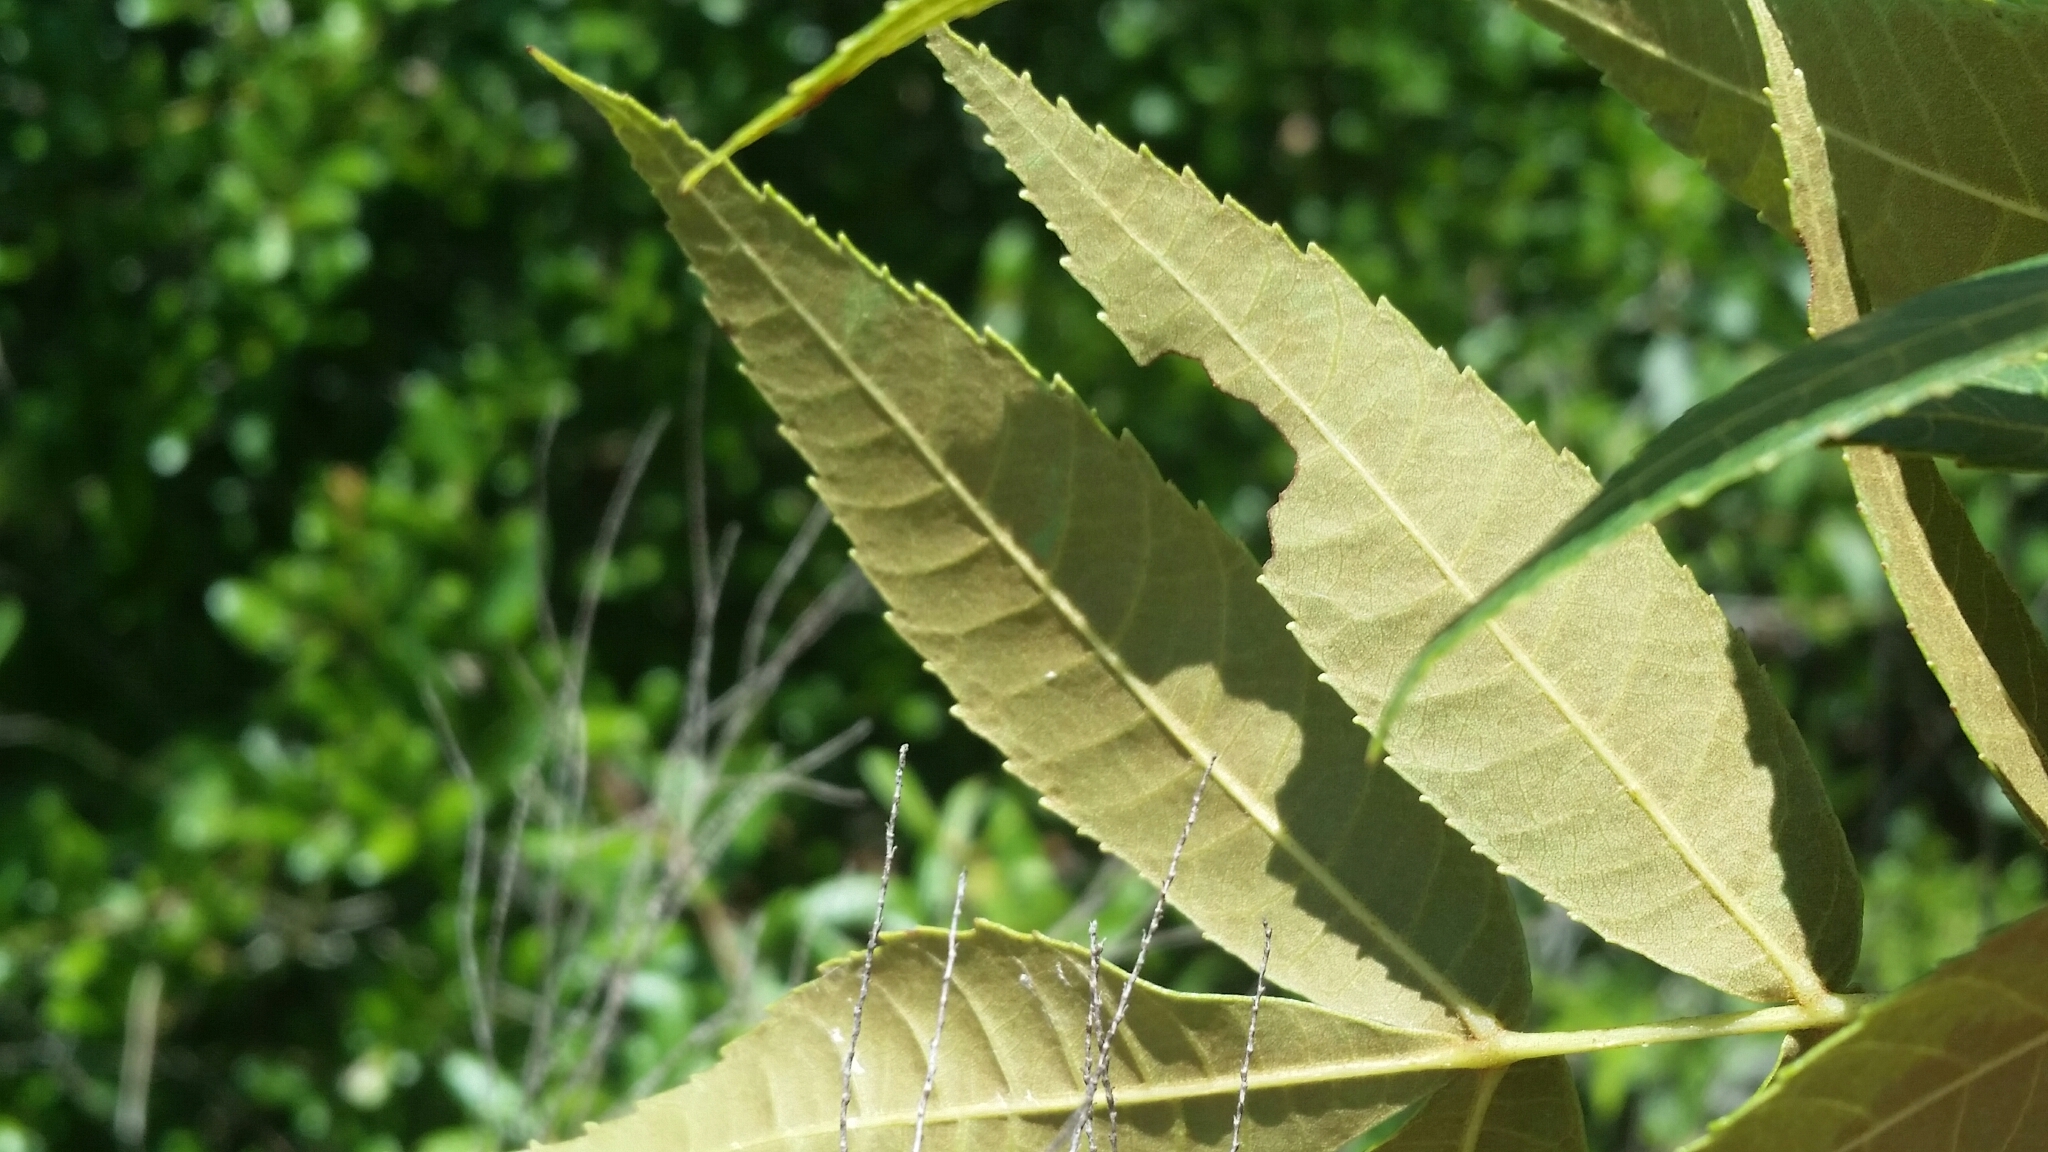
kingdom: Plantae
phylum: Tracheophyta
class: Magnoliopsida
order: Fagales
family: Juglandaceae
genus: Carya
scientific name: Carya floridana
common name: Scrub hickory
